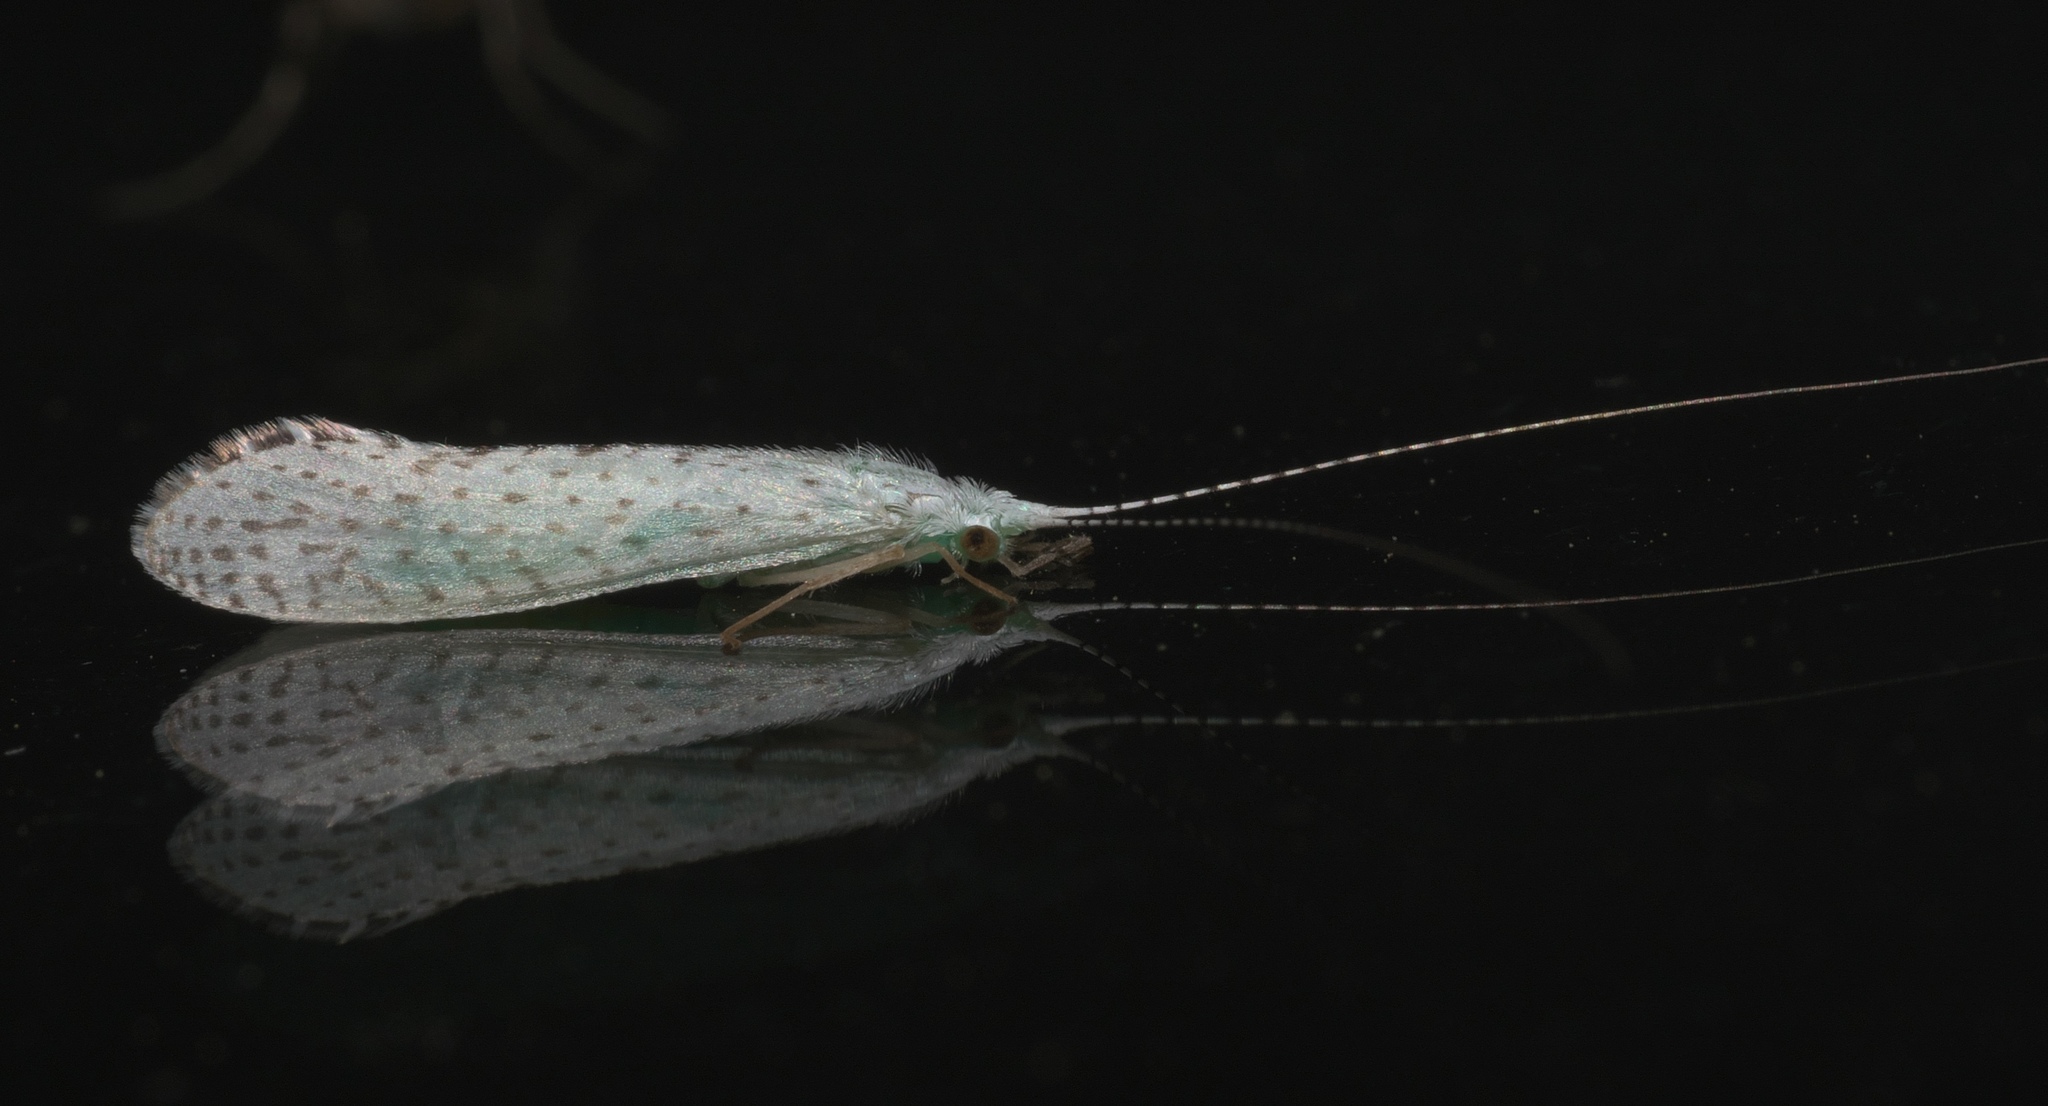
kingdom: Animalia
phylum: Arthropoda
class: Insecta
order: Trichoptera
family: Leptoceridae
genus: Nectopsyche
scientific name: Nectopsyche candida
